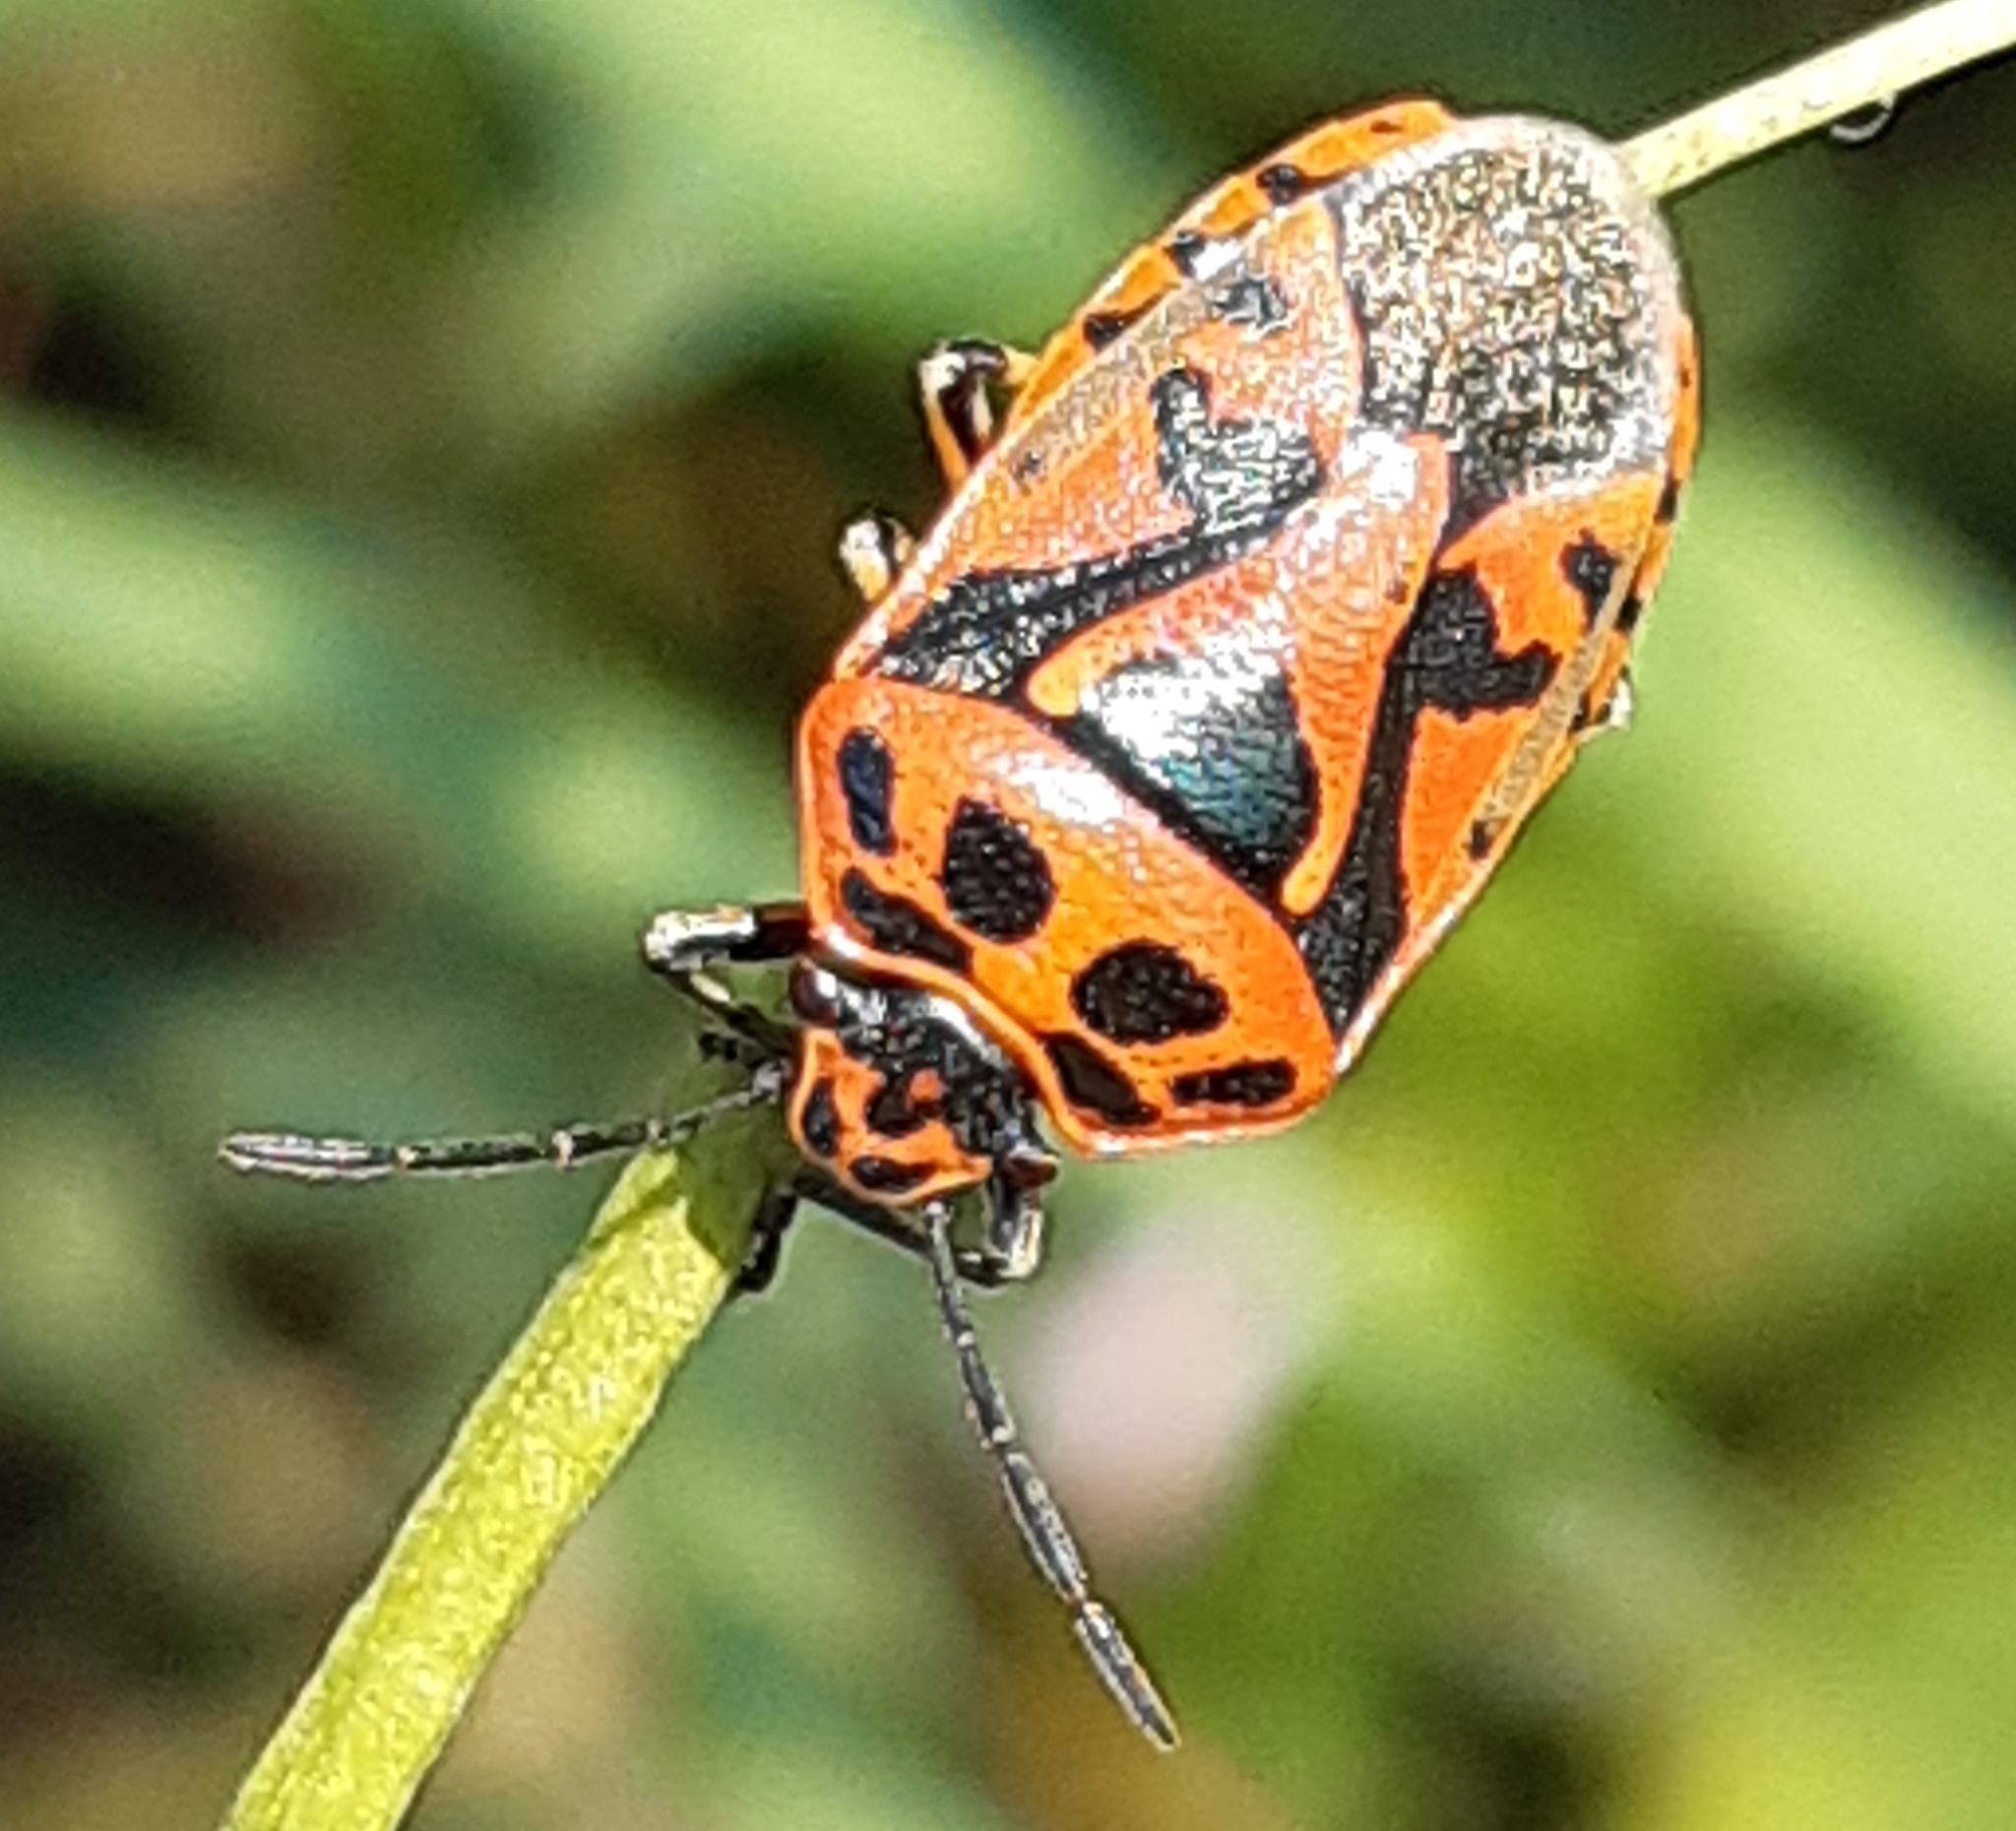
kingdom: Animalia
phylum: Arthropoda
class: Insecta
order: Hemiptera
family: Pentatomidae
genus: Eurydema
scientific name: Eurydema ornata
